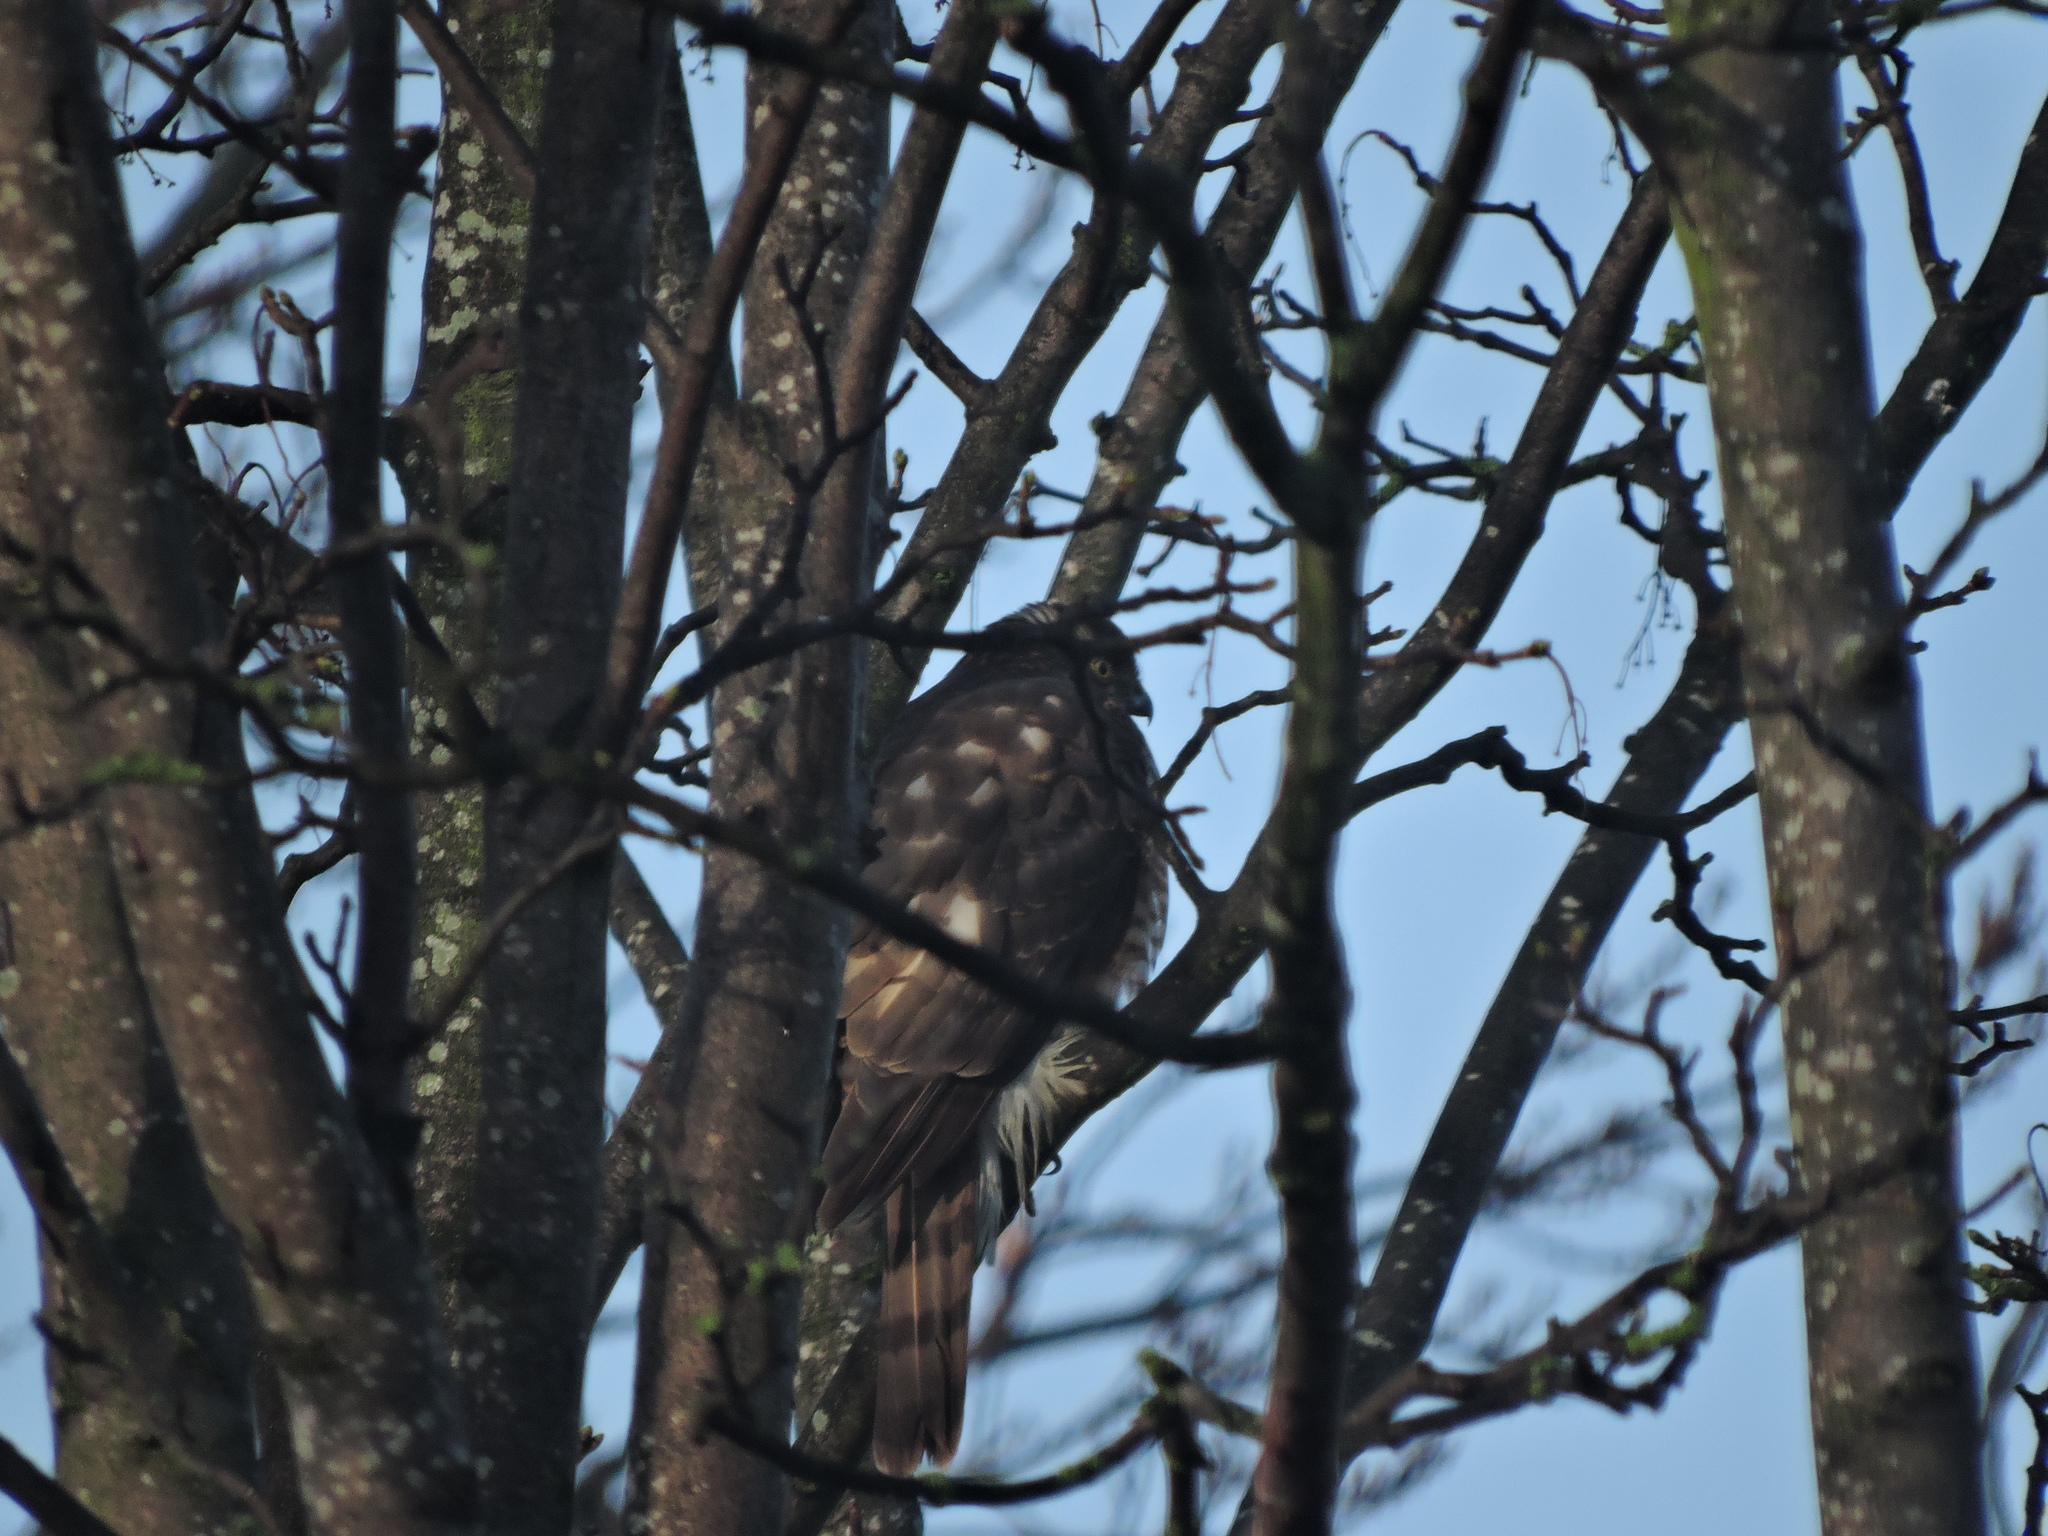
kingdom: Animalia
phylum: Chordata
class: Aves
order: Accipitriformes
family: Accipitridae
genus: Accipiter
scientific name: Accipiter nisus
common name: Eurasian sparrowhawk
